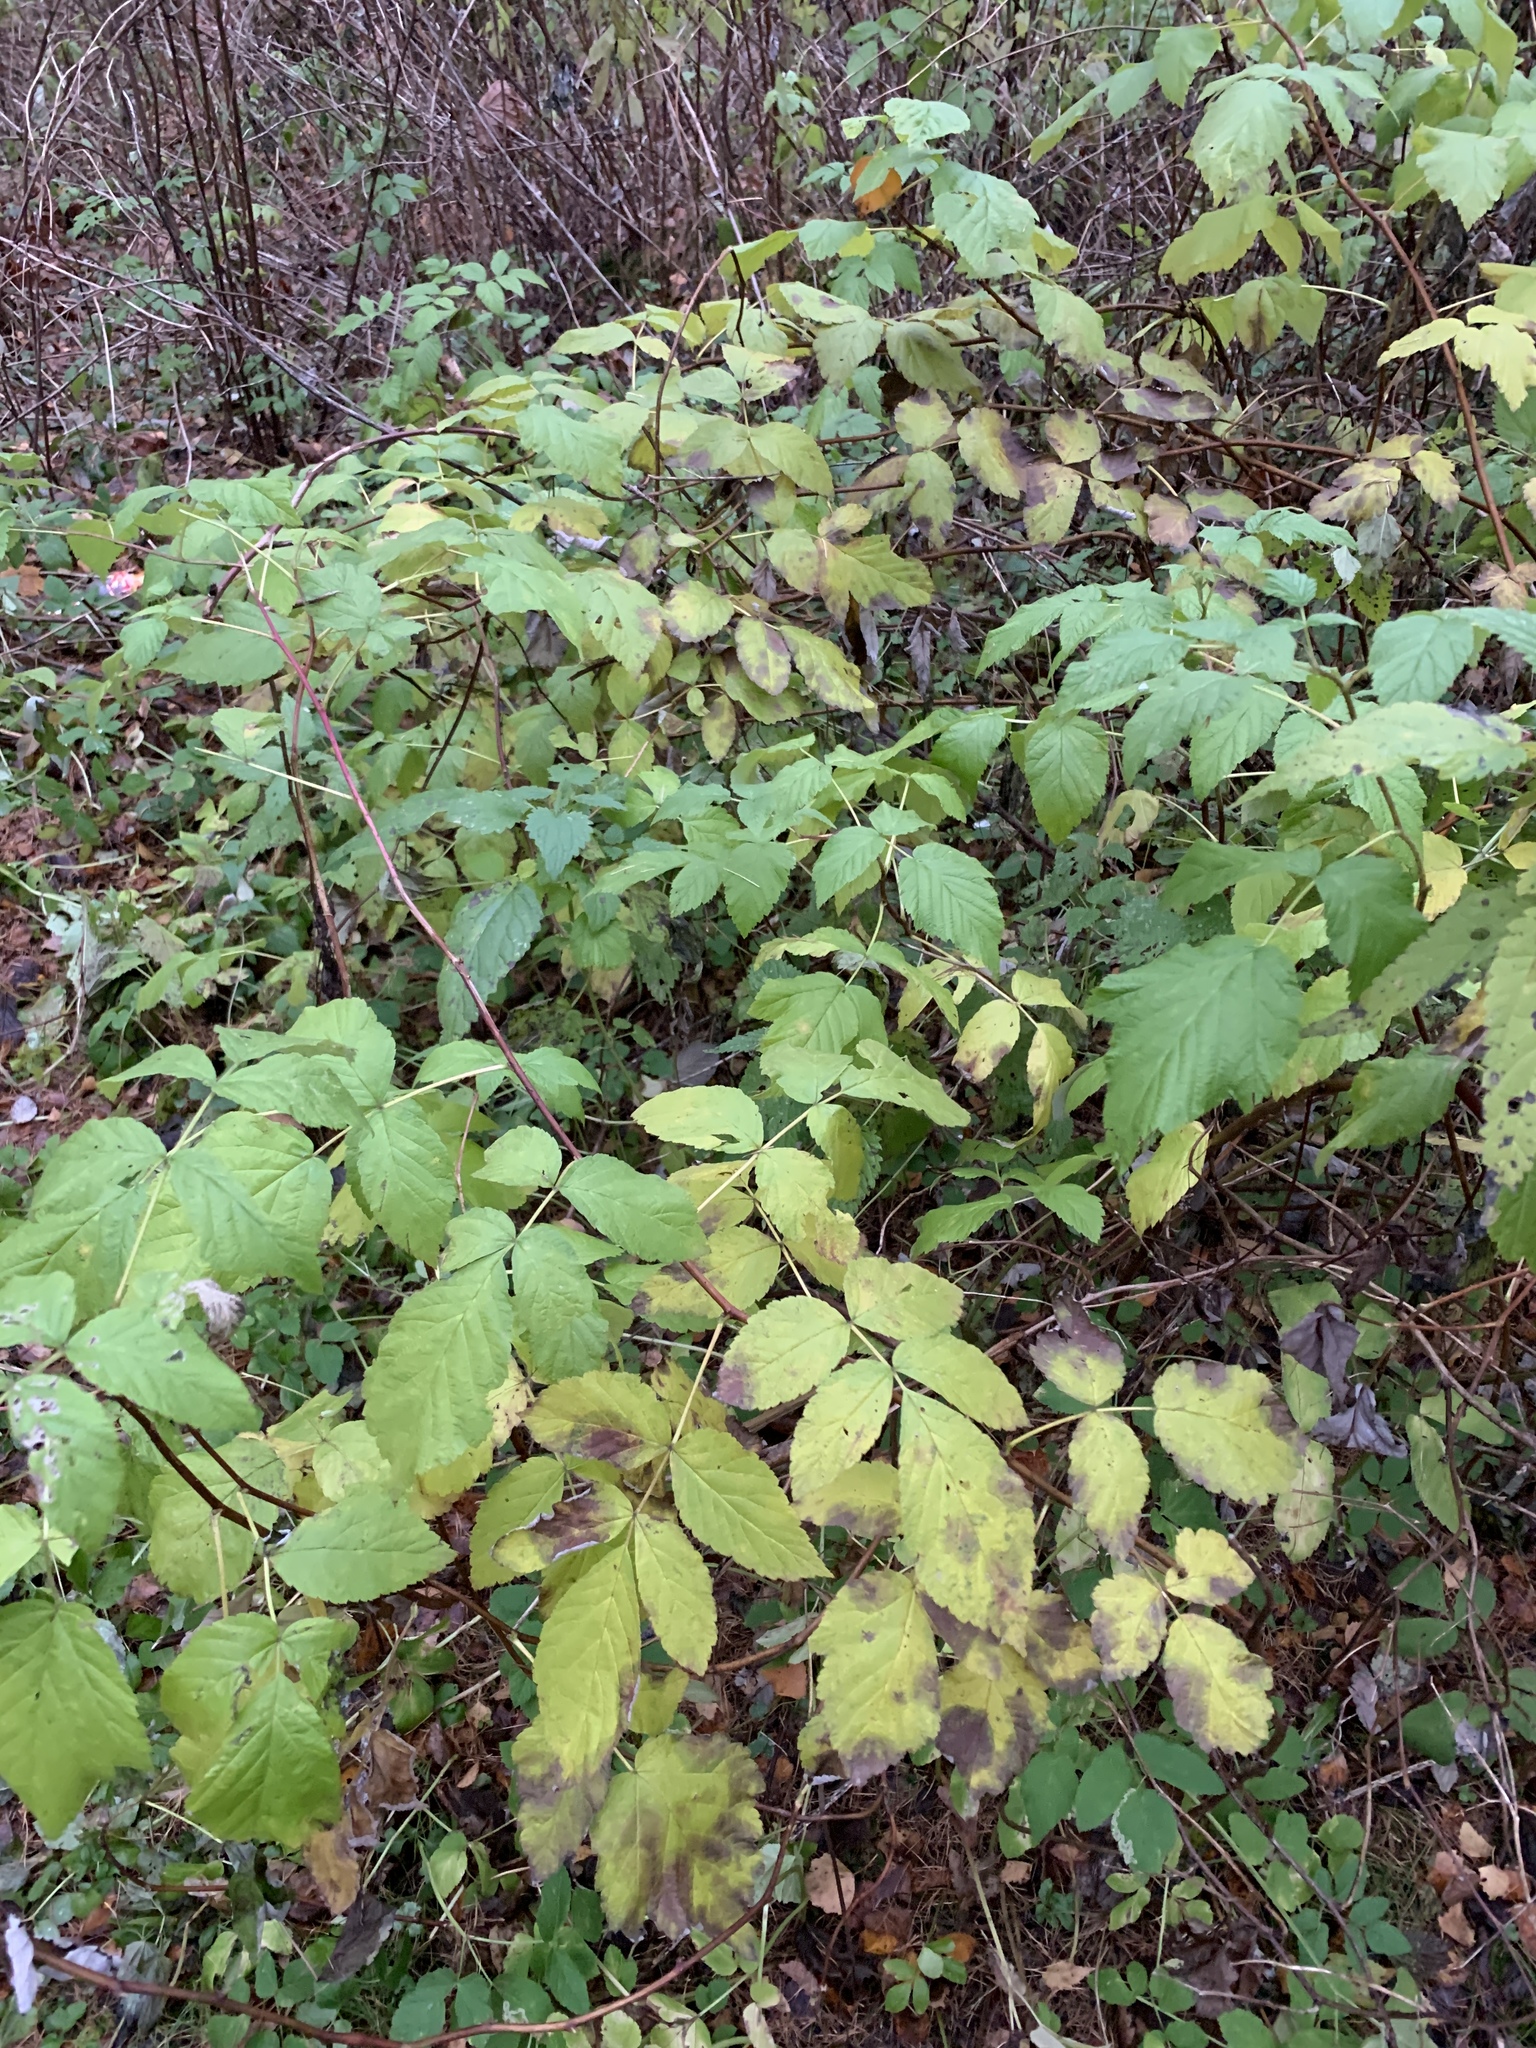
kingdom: Plantae
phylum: Tracheophyta
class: Magnoliopsida
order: Rosales
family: Rosaceae
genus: Rubus
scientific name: Rubus idaeus
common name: Raspberry
